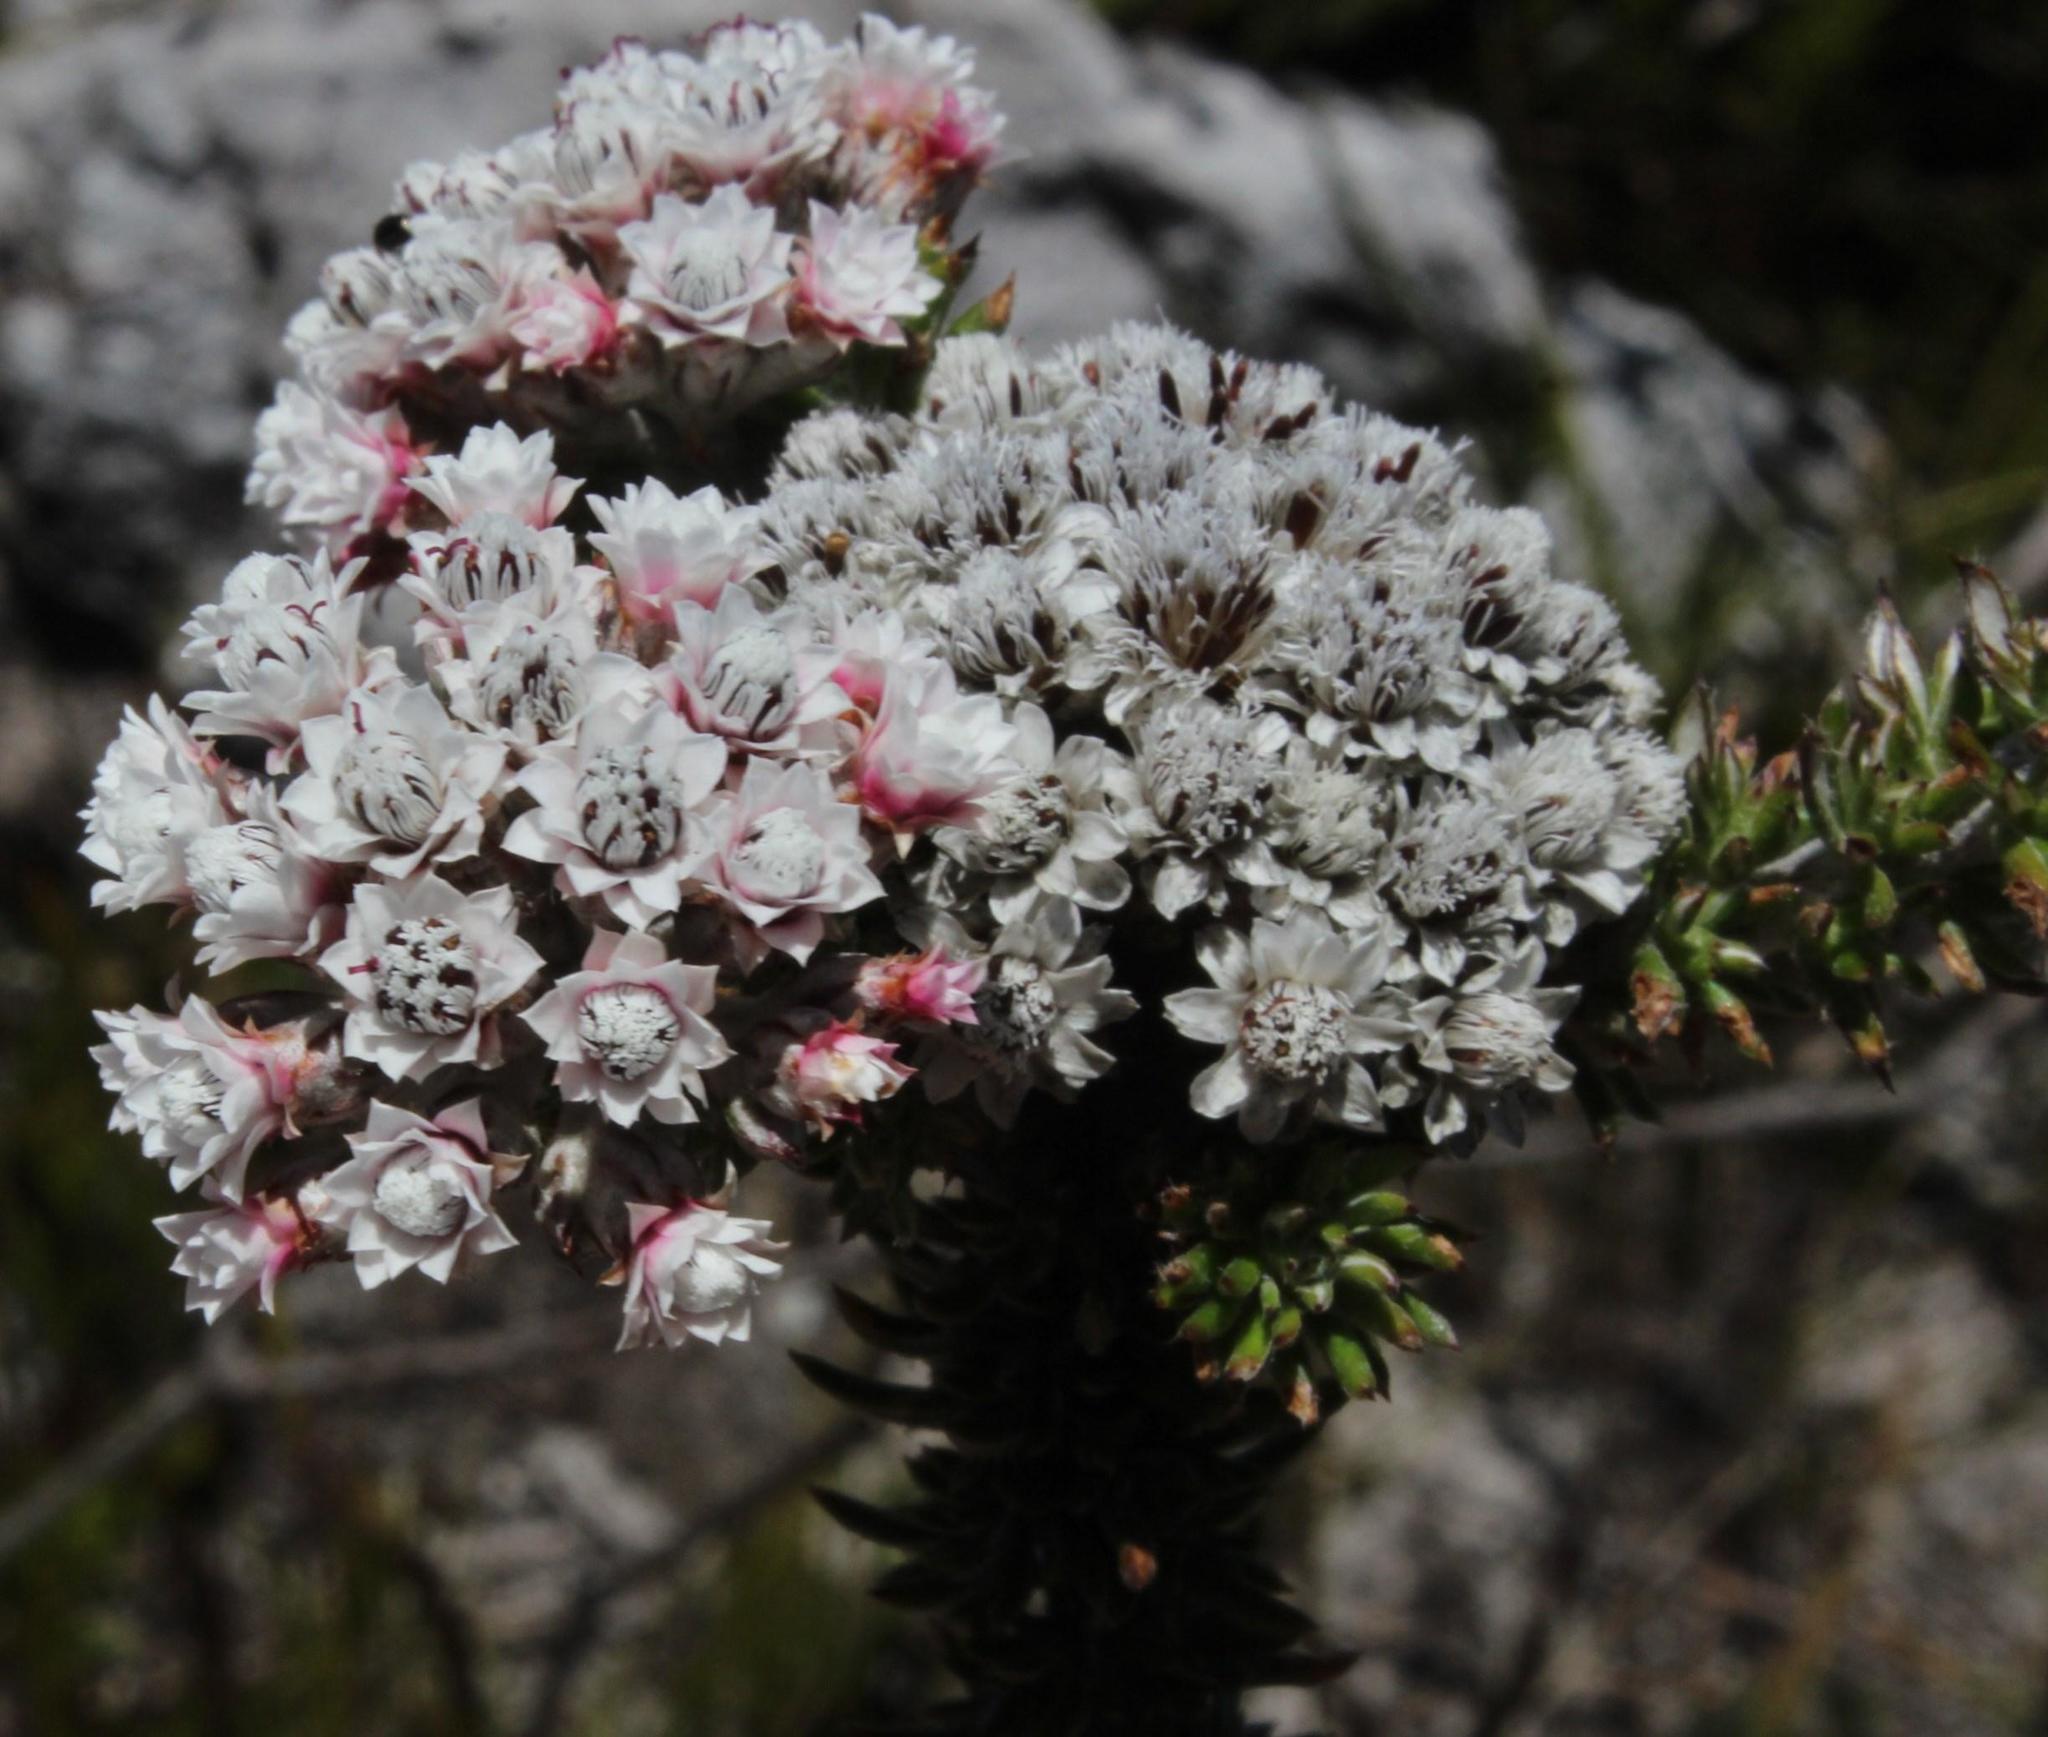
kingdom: Plantae
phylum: Tracheophyta
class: Magnoliopsida
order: Asterales
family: Asteraceae
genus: Metalasia
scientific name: Metalasia lichtensteinii
